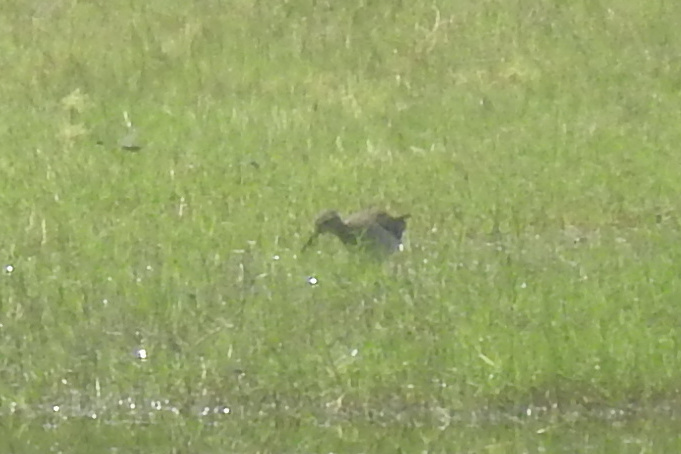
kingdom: Animalia
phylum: Chordata
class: Aves
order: Charadriiformes
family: Scolopacidae
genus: Tringa
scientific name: Tringa glareola
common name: Wood sandpiper
